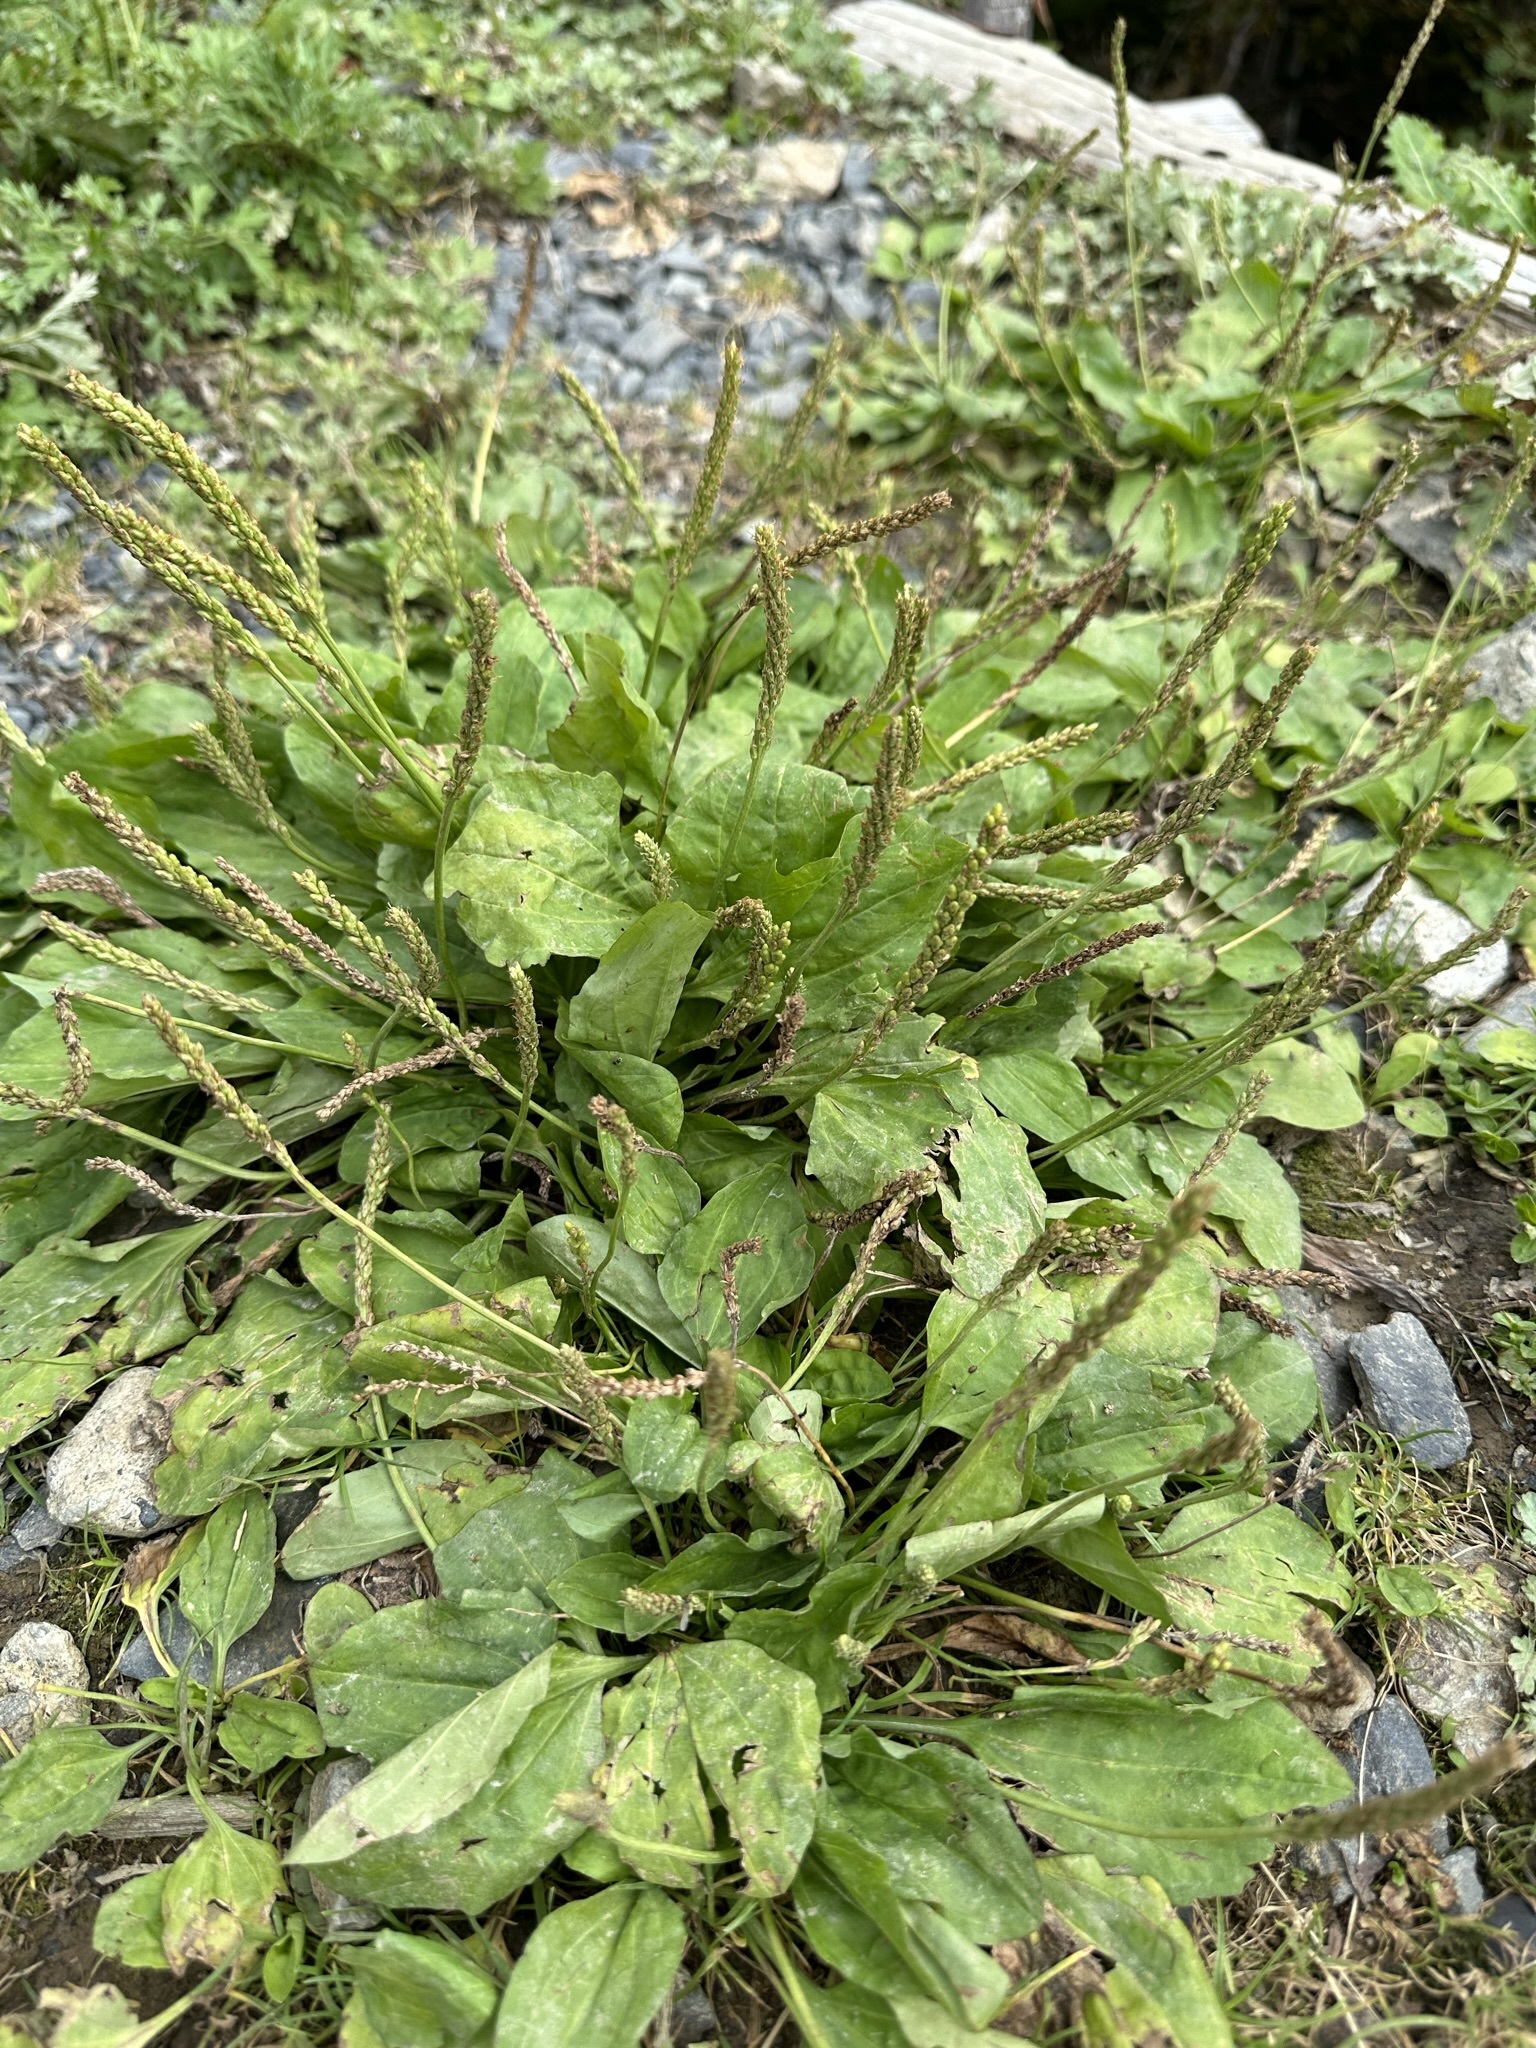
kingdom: Plantae
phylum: Tracheophyta
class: Magnoliopsida
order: Lamiales
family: Plantaginaceae
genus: Plantago
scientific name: Plantago asiatica
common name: Psyllium
